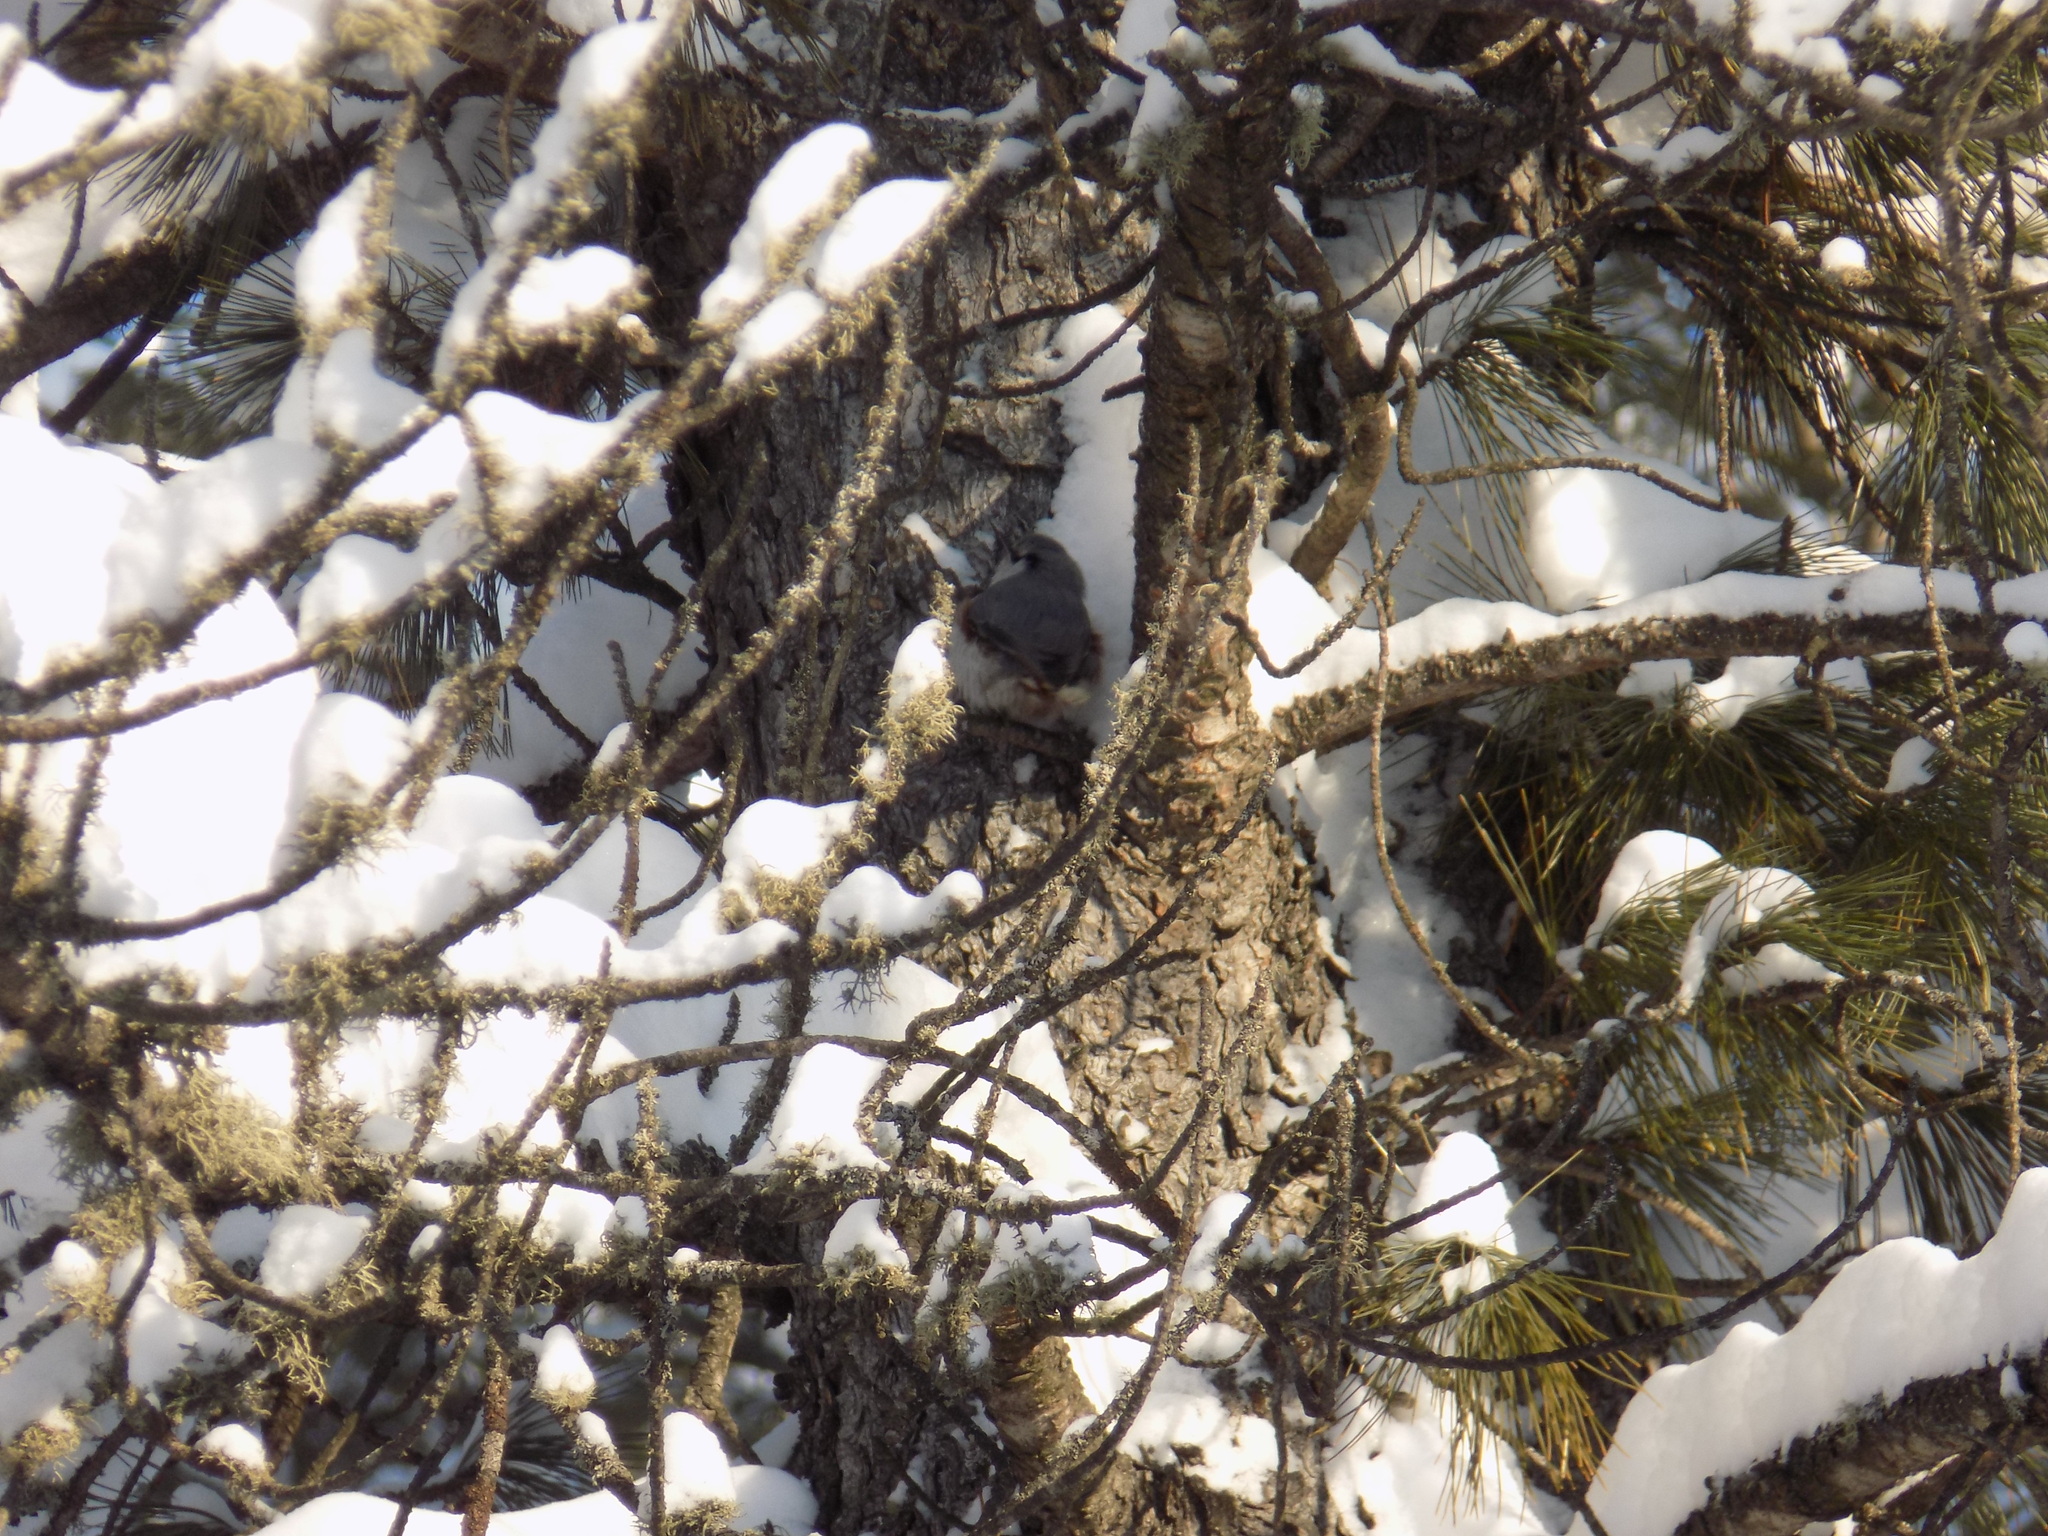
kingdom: Animalia
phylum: Chordata
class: Aves
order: Passeriformes
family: Sittidae
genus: Sitta
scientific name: Sitta europaea
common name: Eurasian nuthatch
